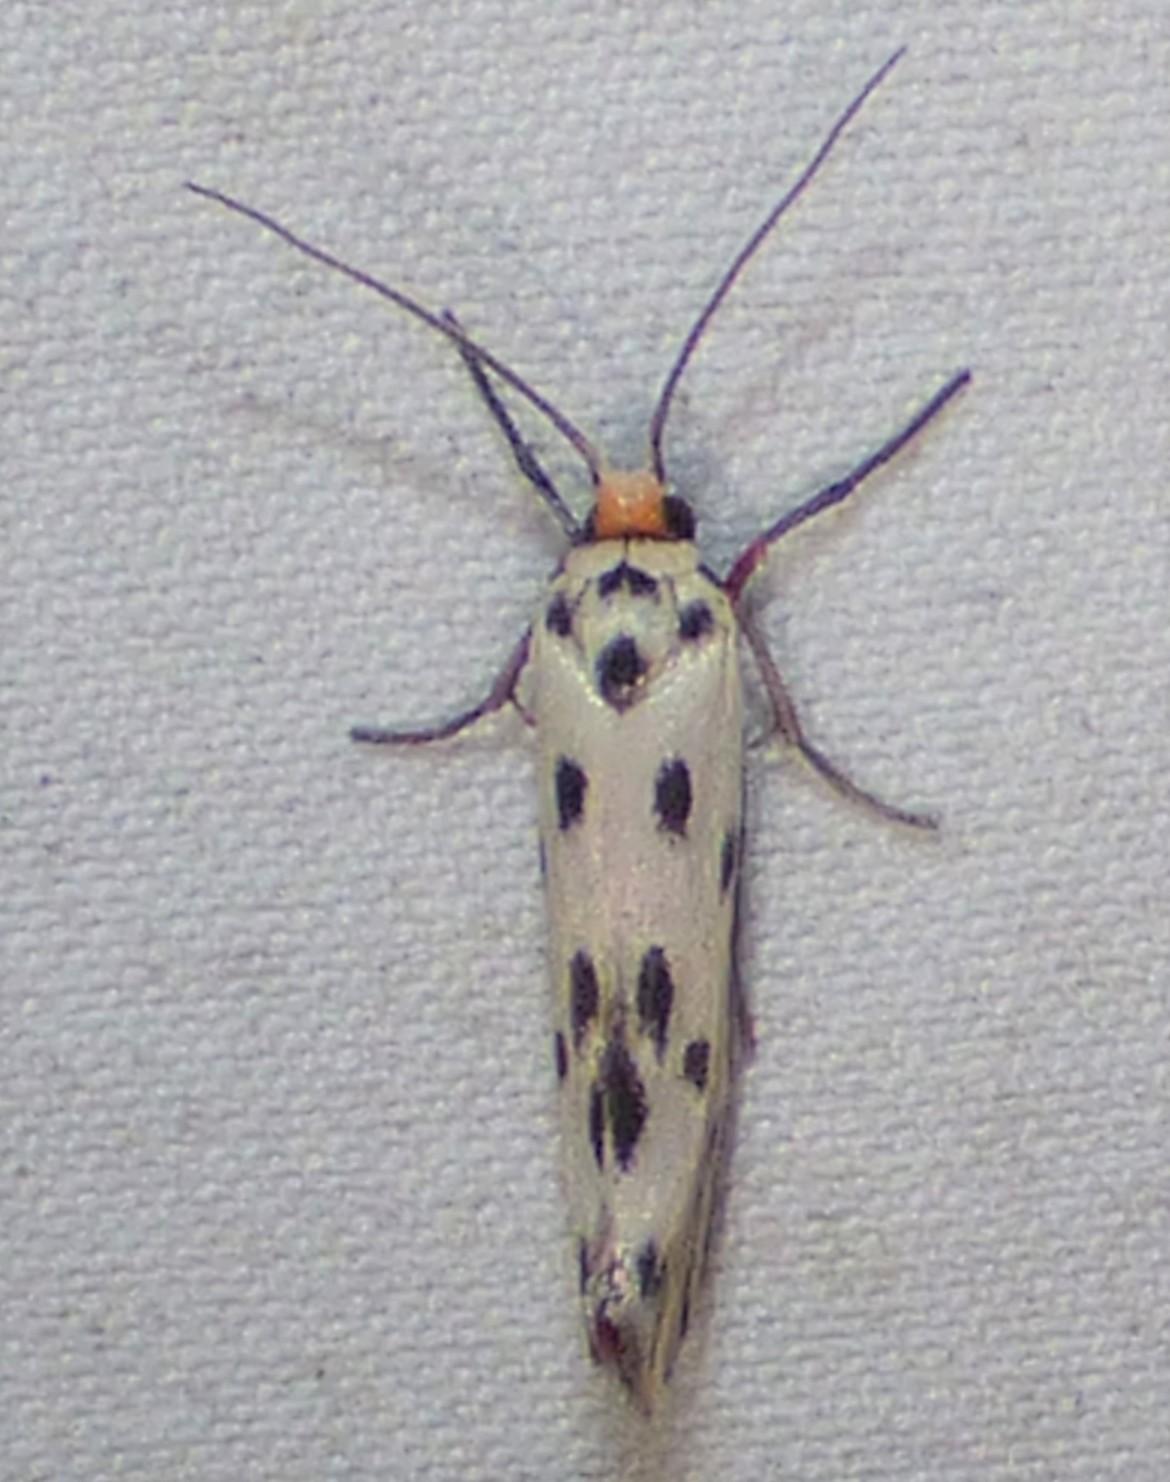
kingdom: Animalia
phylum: Arthropoda
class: Insecta
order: Lepidoptera
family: Lacturidae
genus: Lactura
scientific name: Lactura
